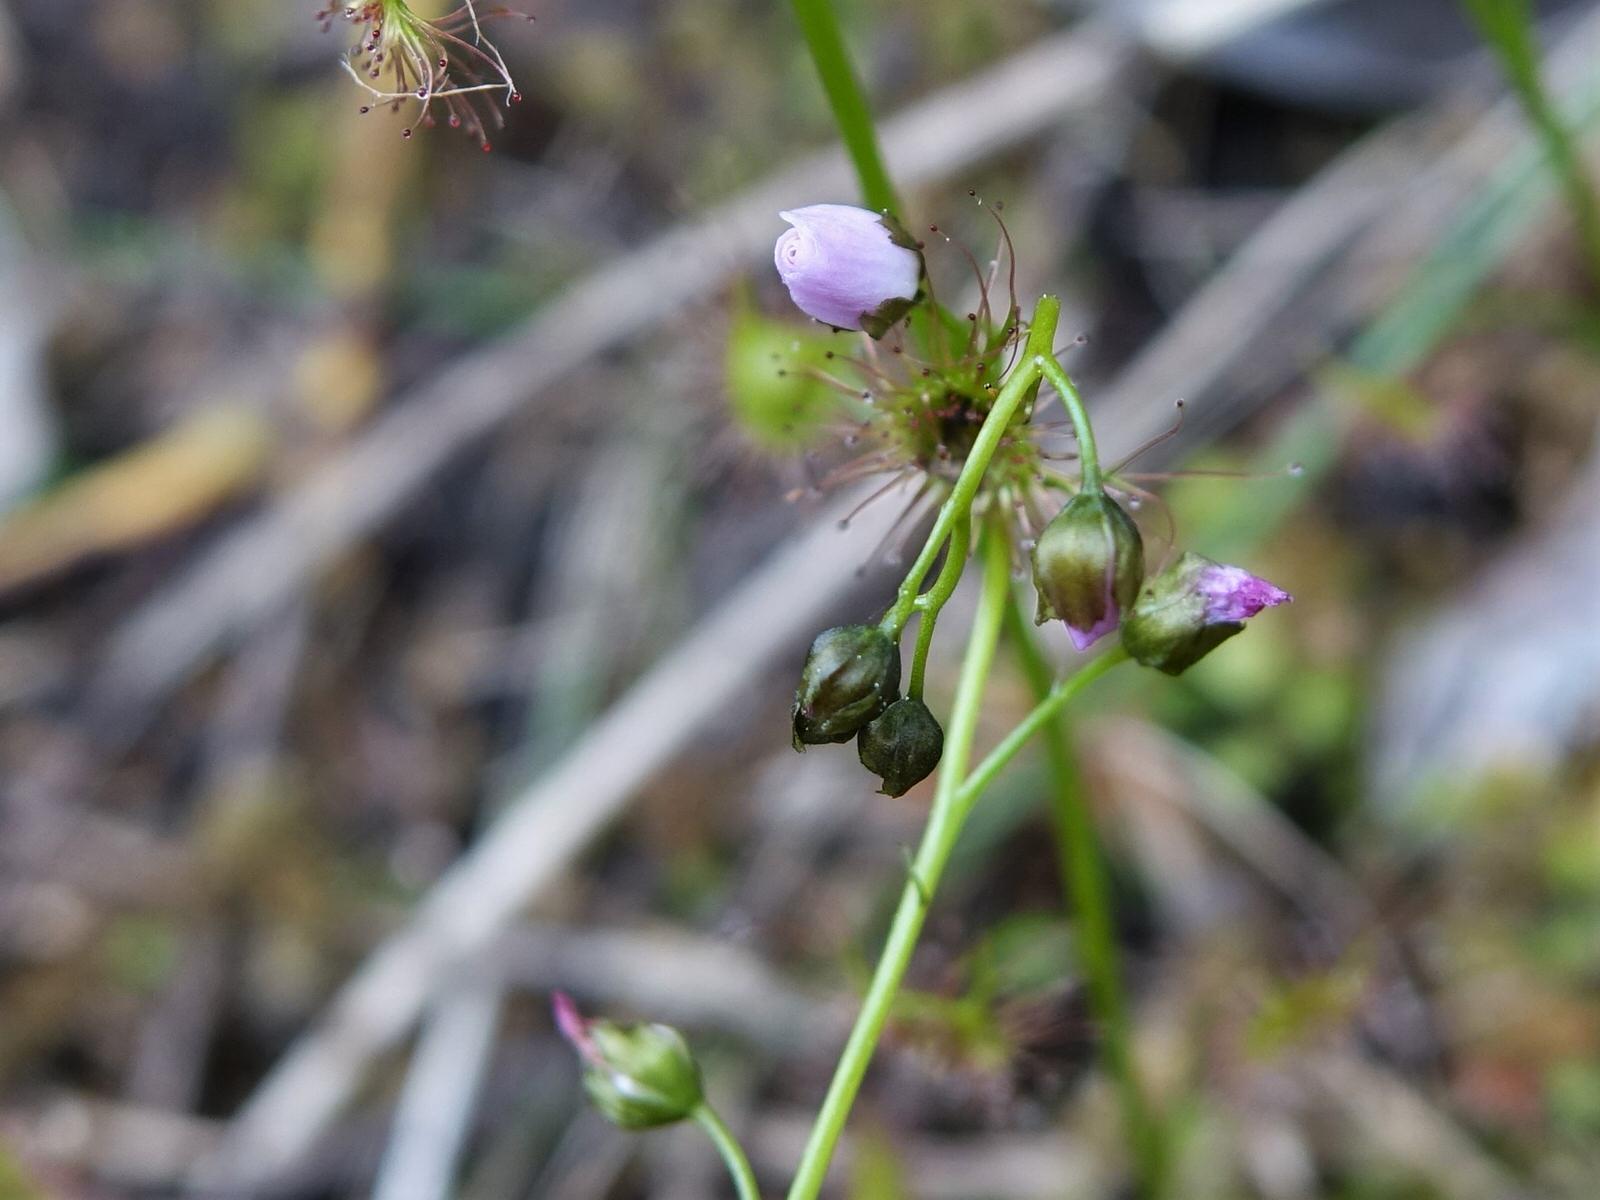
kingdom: Plantae
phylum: Tracheophyta
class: Magnoliopsida
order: Caryophyllales
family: Droseraceae
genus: Drosera
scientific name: Drosera peltata
